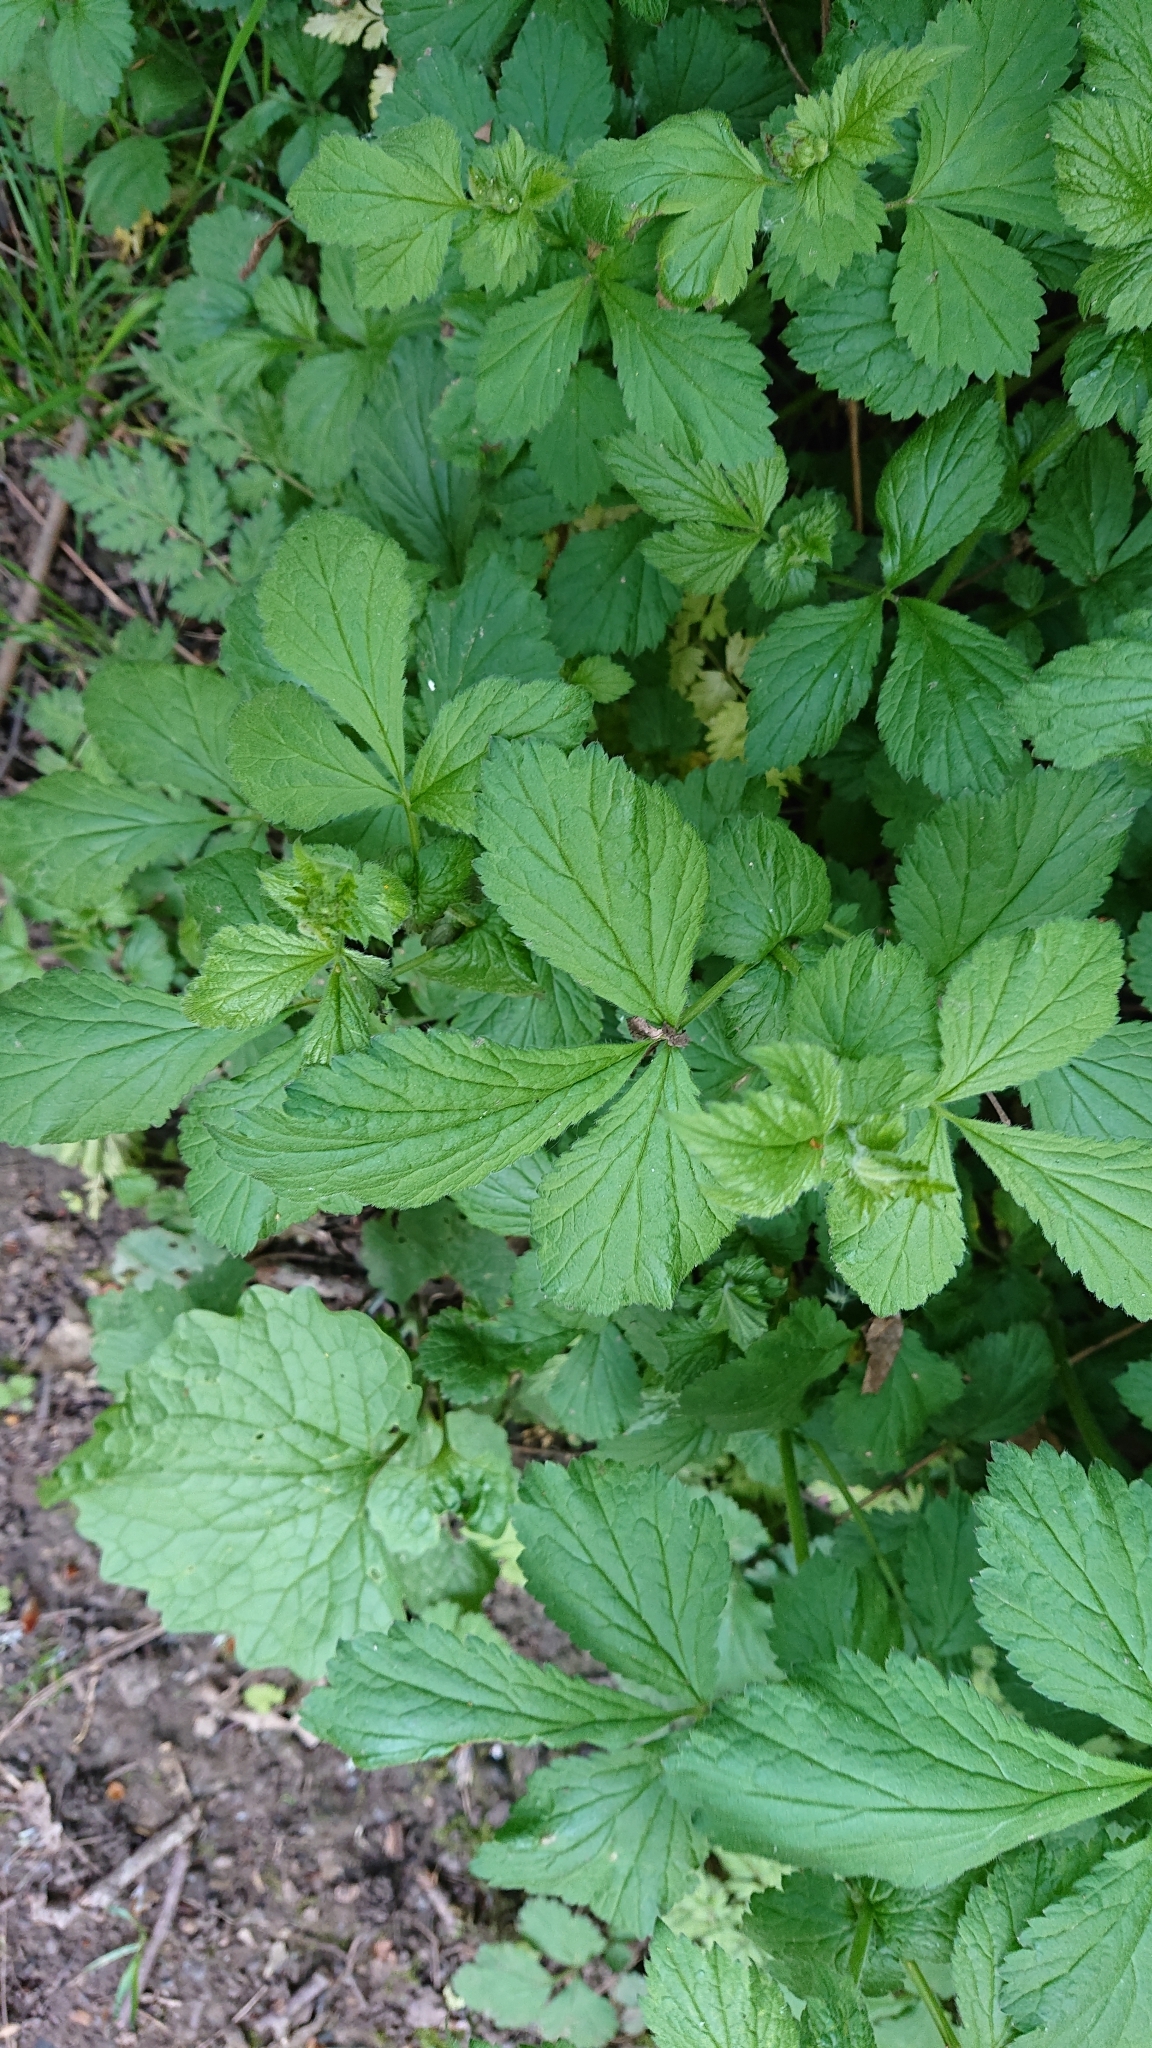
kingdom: Plantae
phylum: Tracheophyta
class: Magnoliopsida
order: Rosales
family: Rosaceae
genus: Geum
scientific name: Geum urbanum
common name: Wood avens
